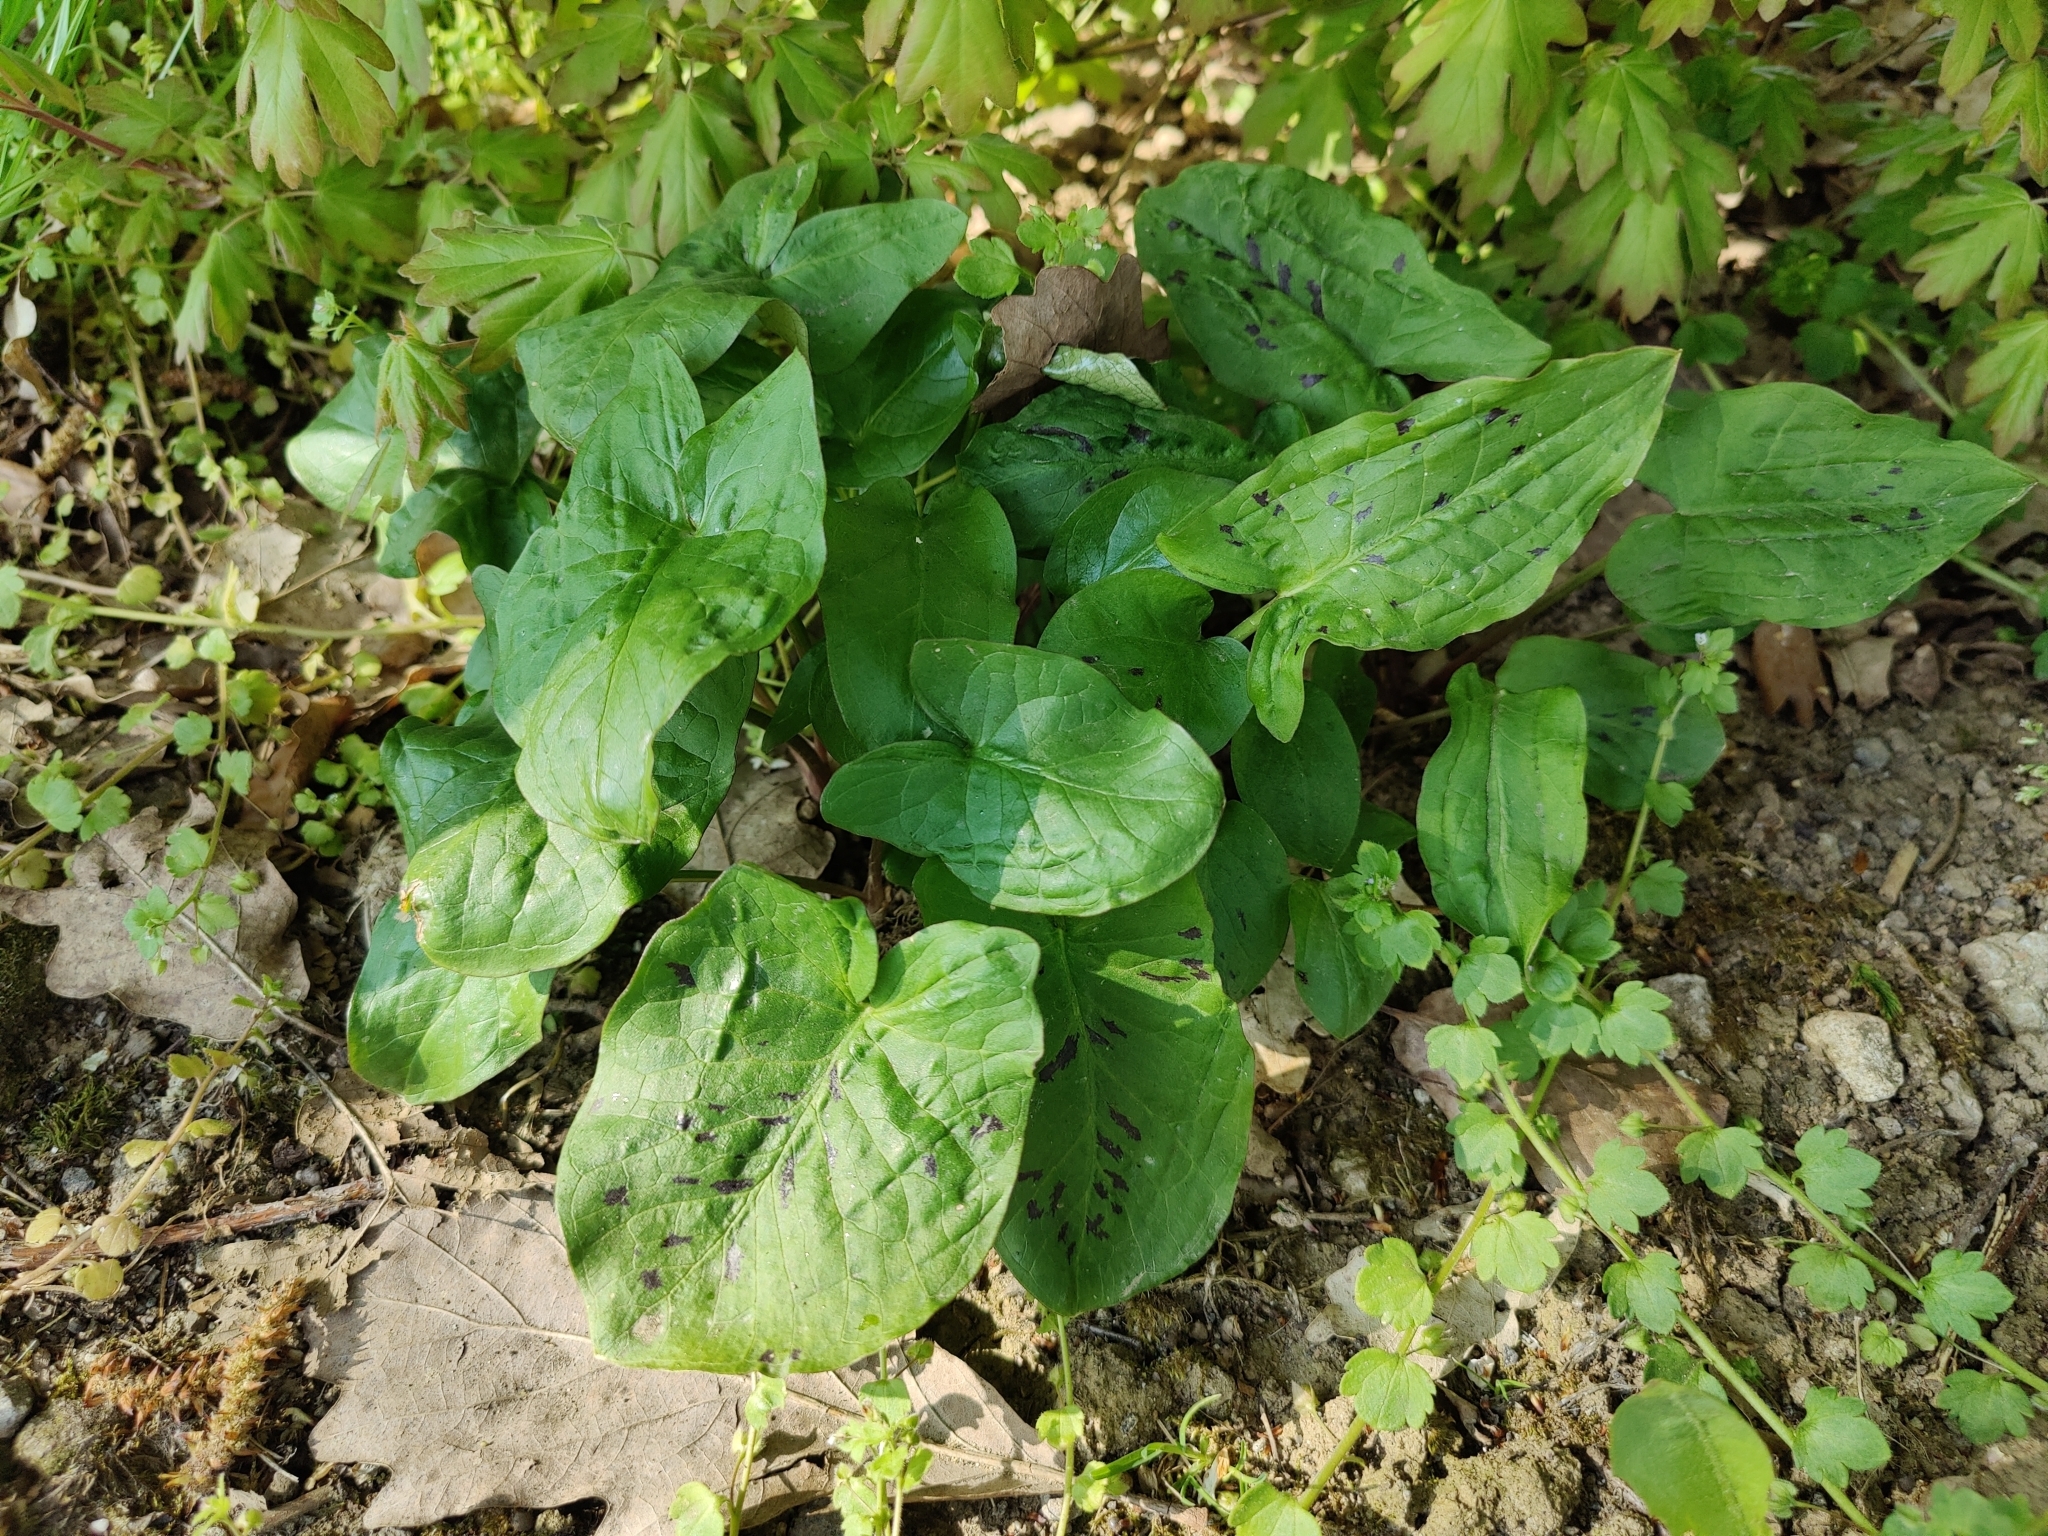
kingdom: Plantae
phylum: Tracheophyta
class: Liliopsida
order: Alismatales
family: Araceae
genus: Arum
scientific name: Arum maculatum
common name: Lords-and-ladies
